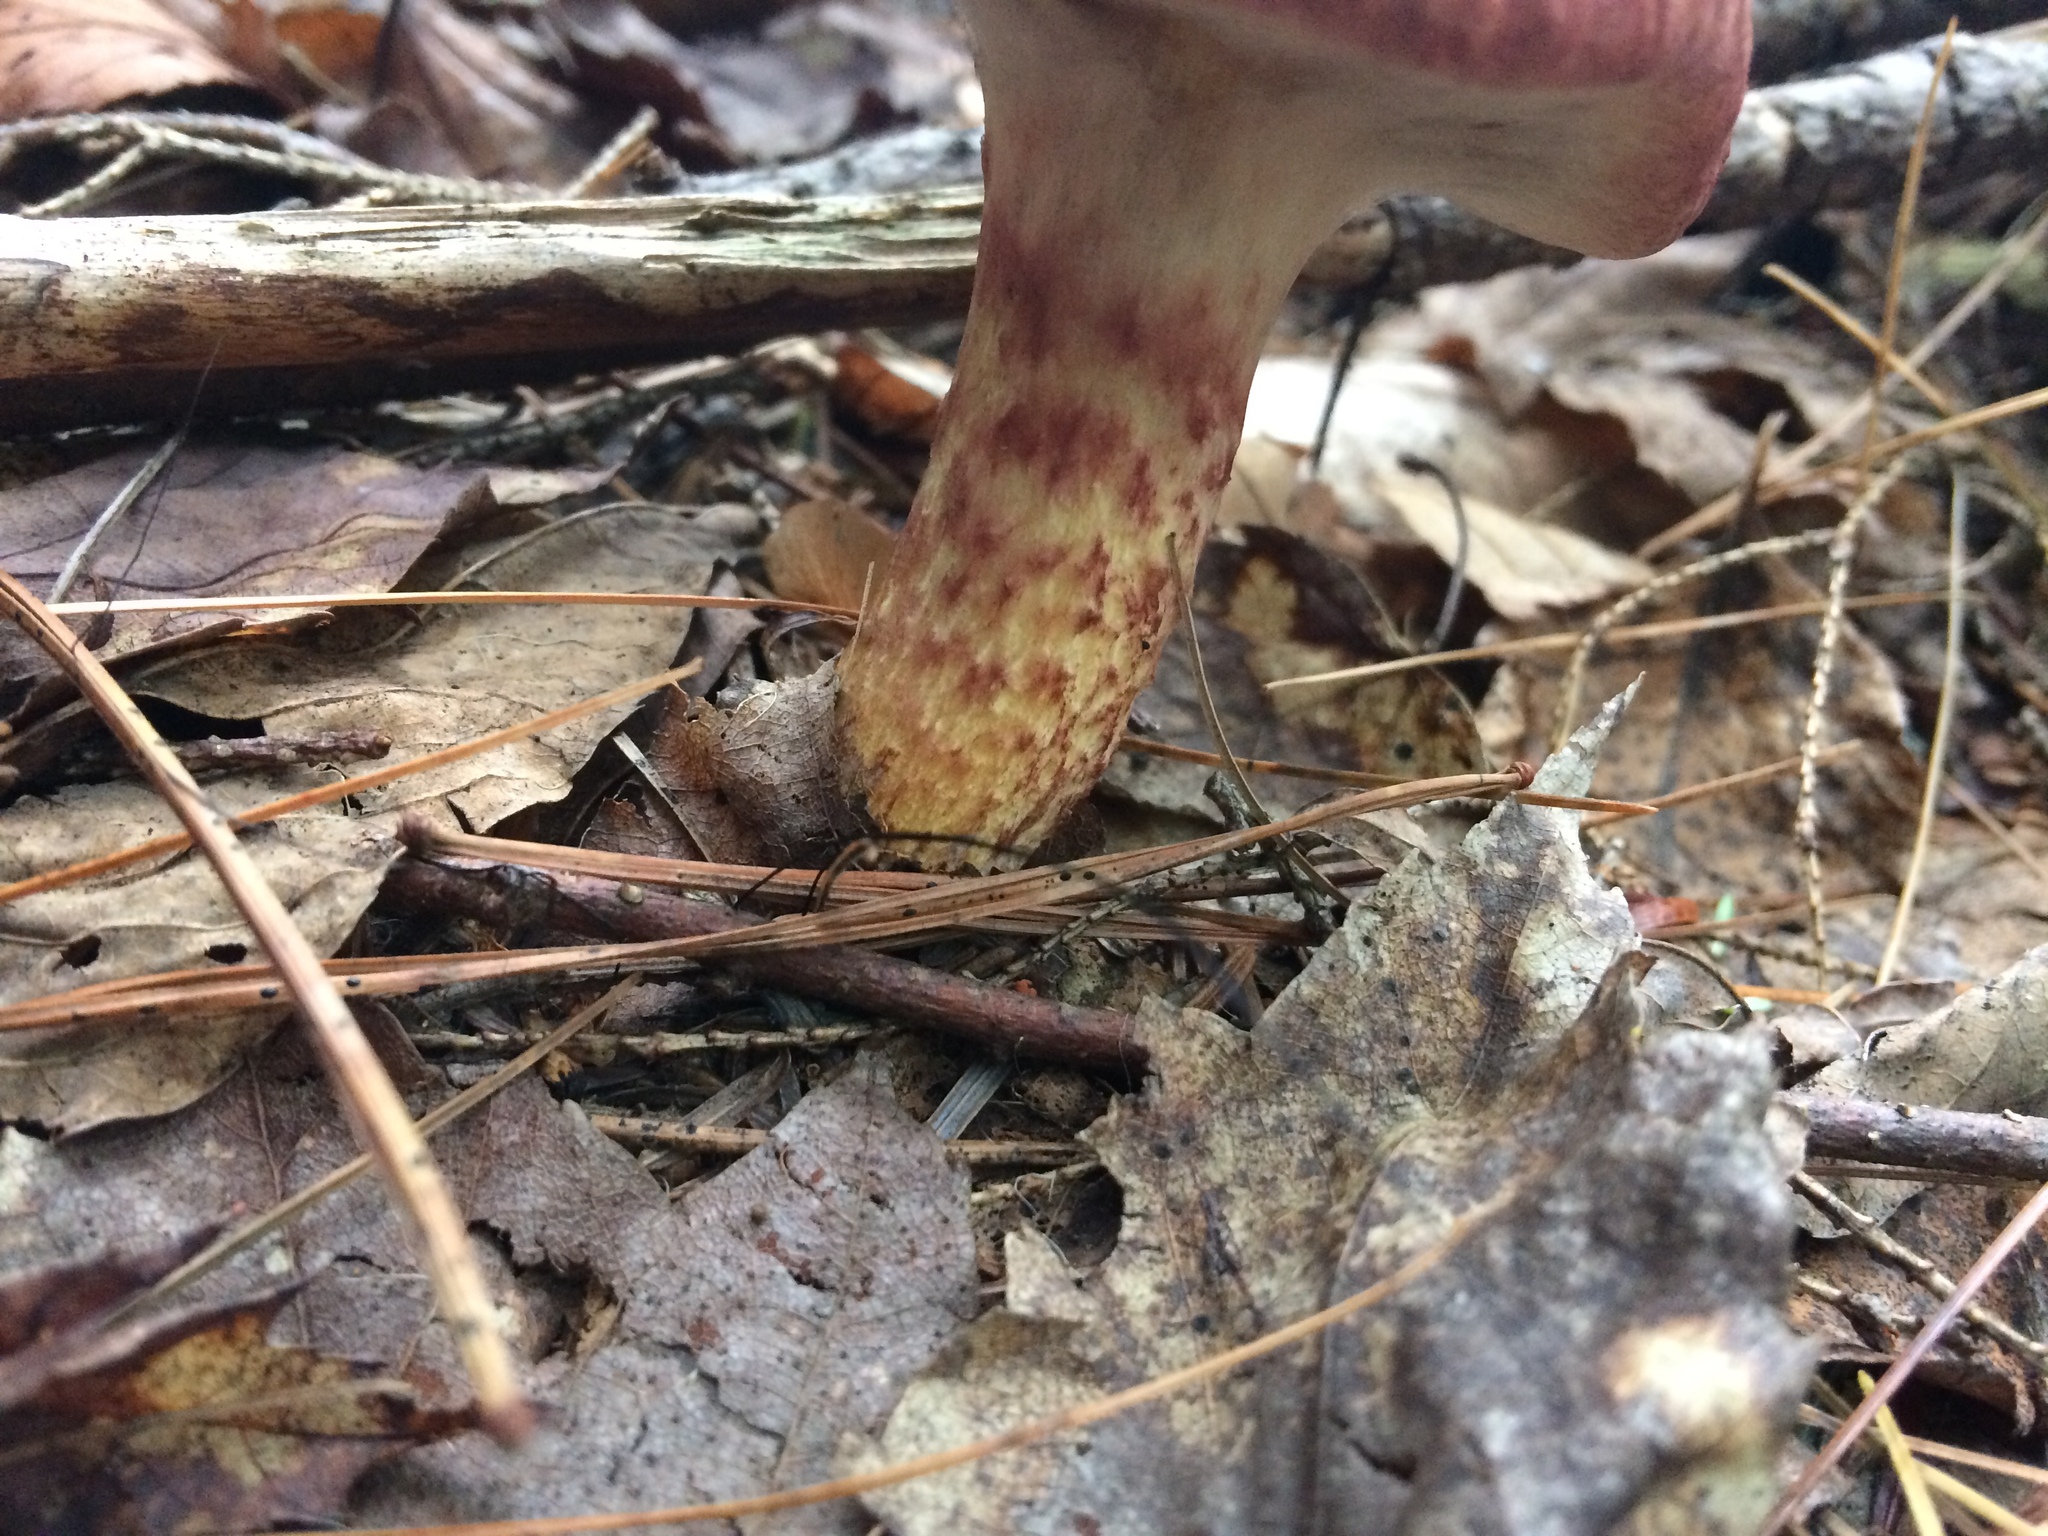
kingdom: Fungi
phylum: Basidiomycota
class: Agaricomycetes
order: Boletales
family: Suillaceae
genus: Suillus
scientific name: Suillus spraguei
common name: Painted suillus
